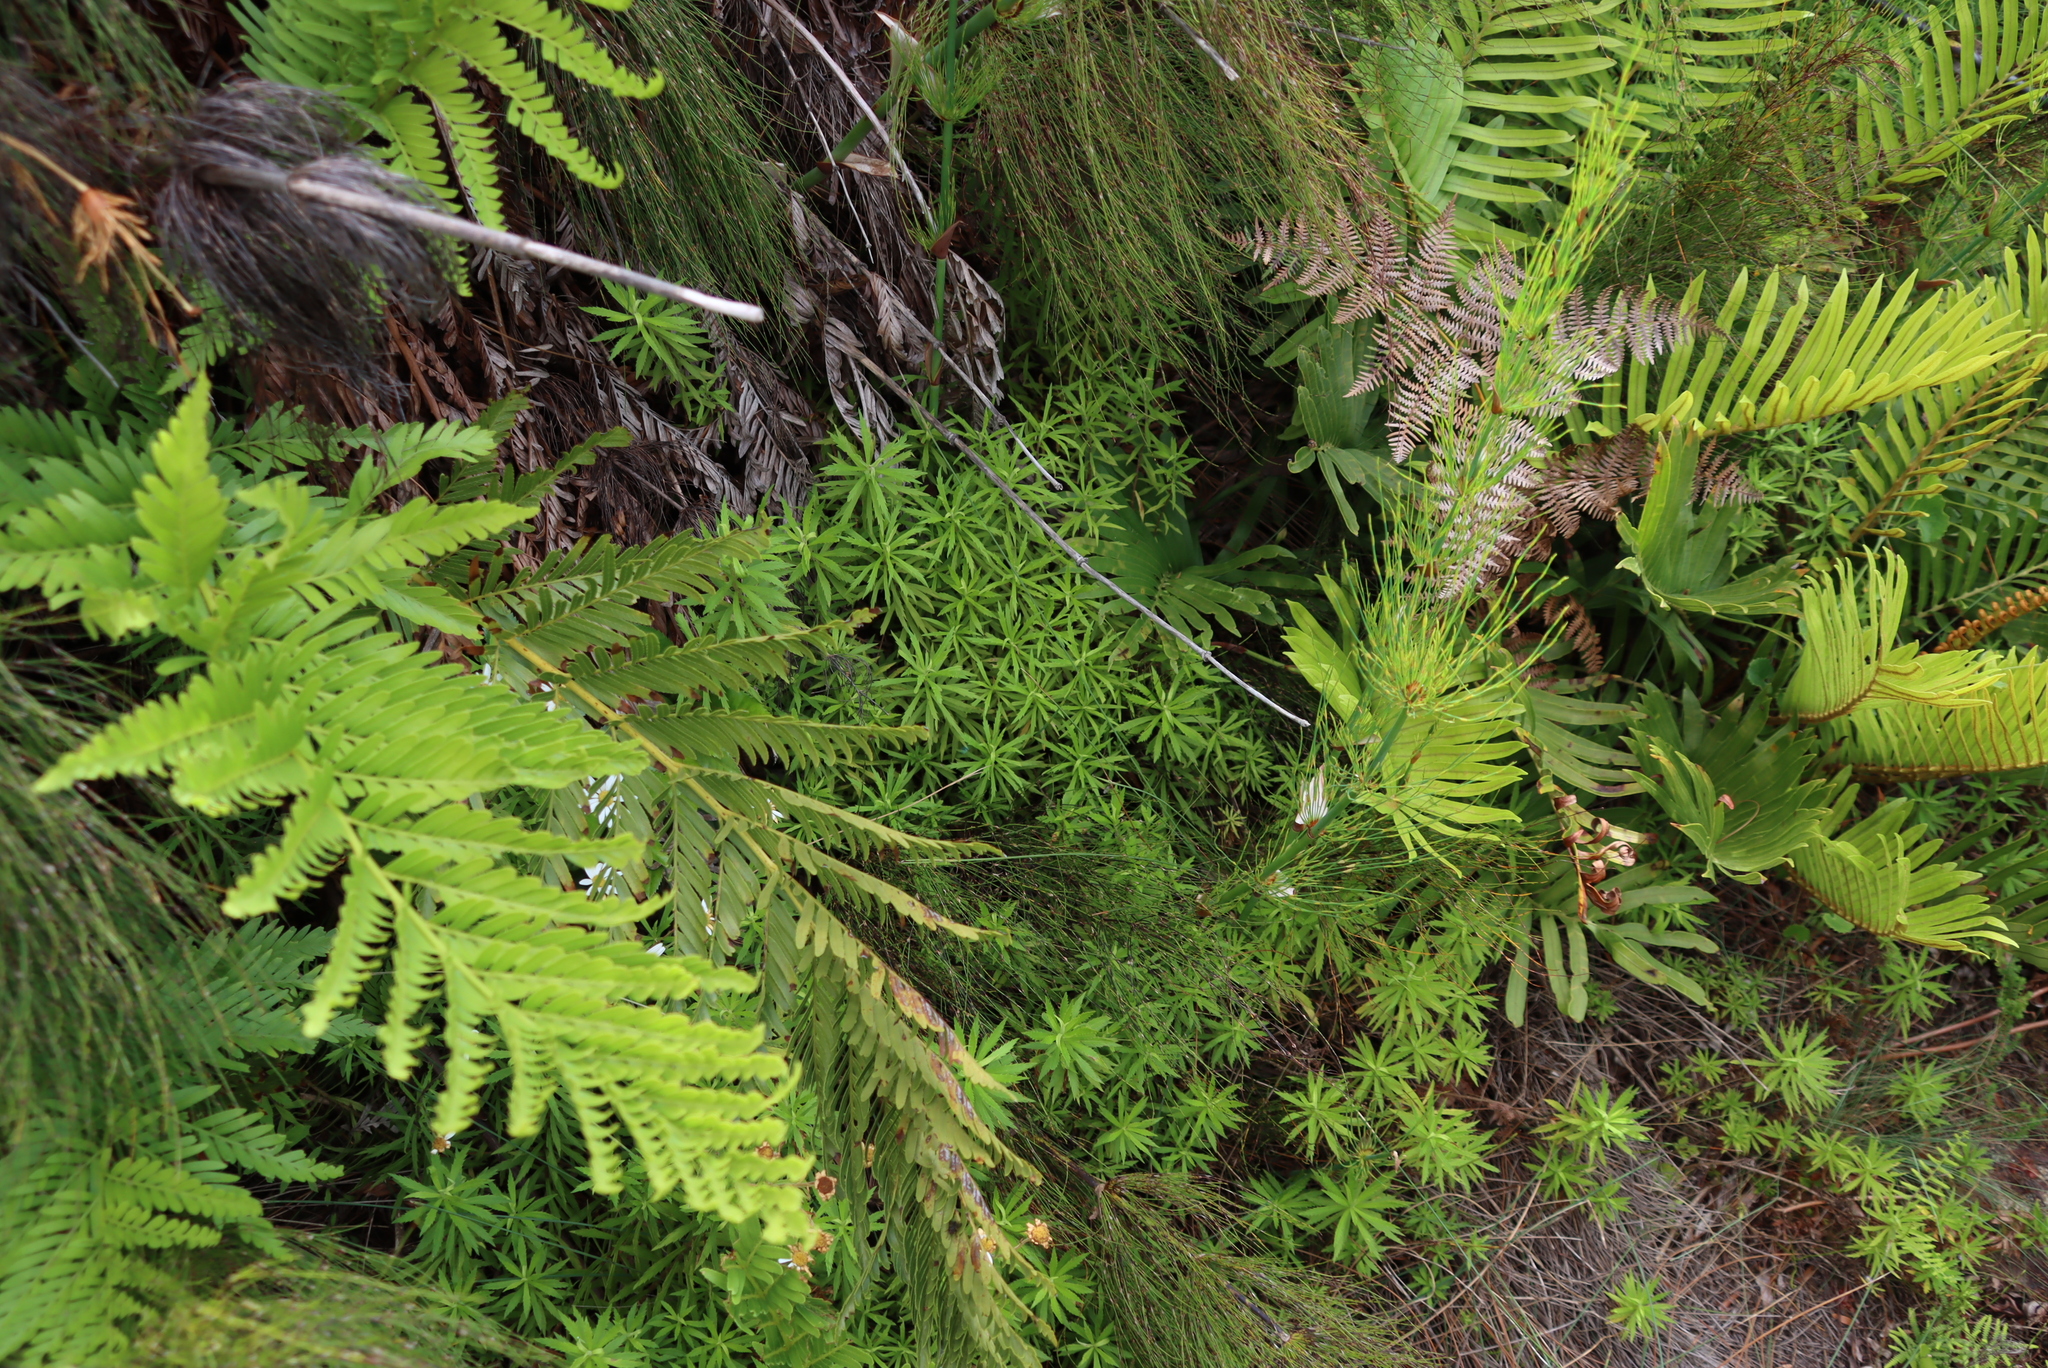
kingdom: Plantae
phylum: Tracheophyta
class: Magnoliopsida
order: Asterales
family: Asteraceae
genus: Osmitopsis
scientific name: Osmitopsis osmitoides
